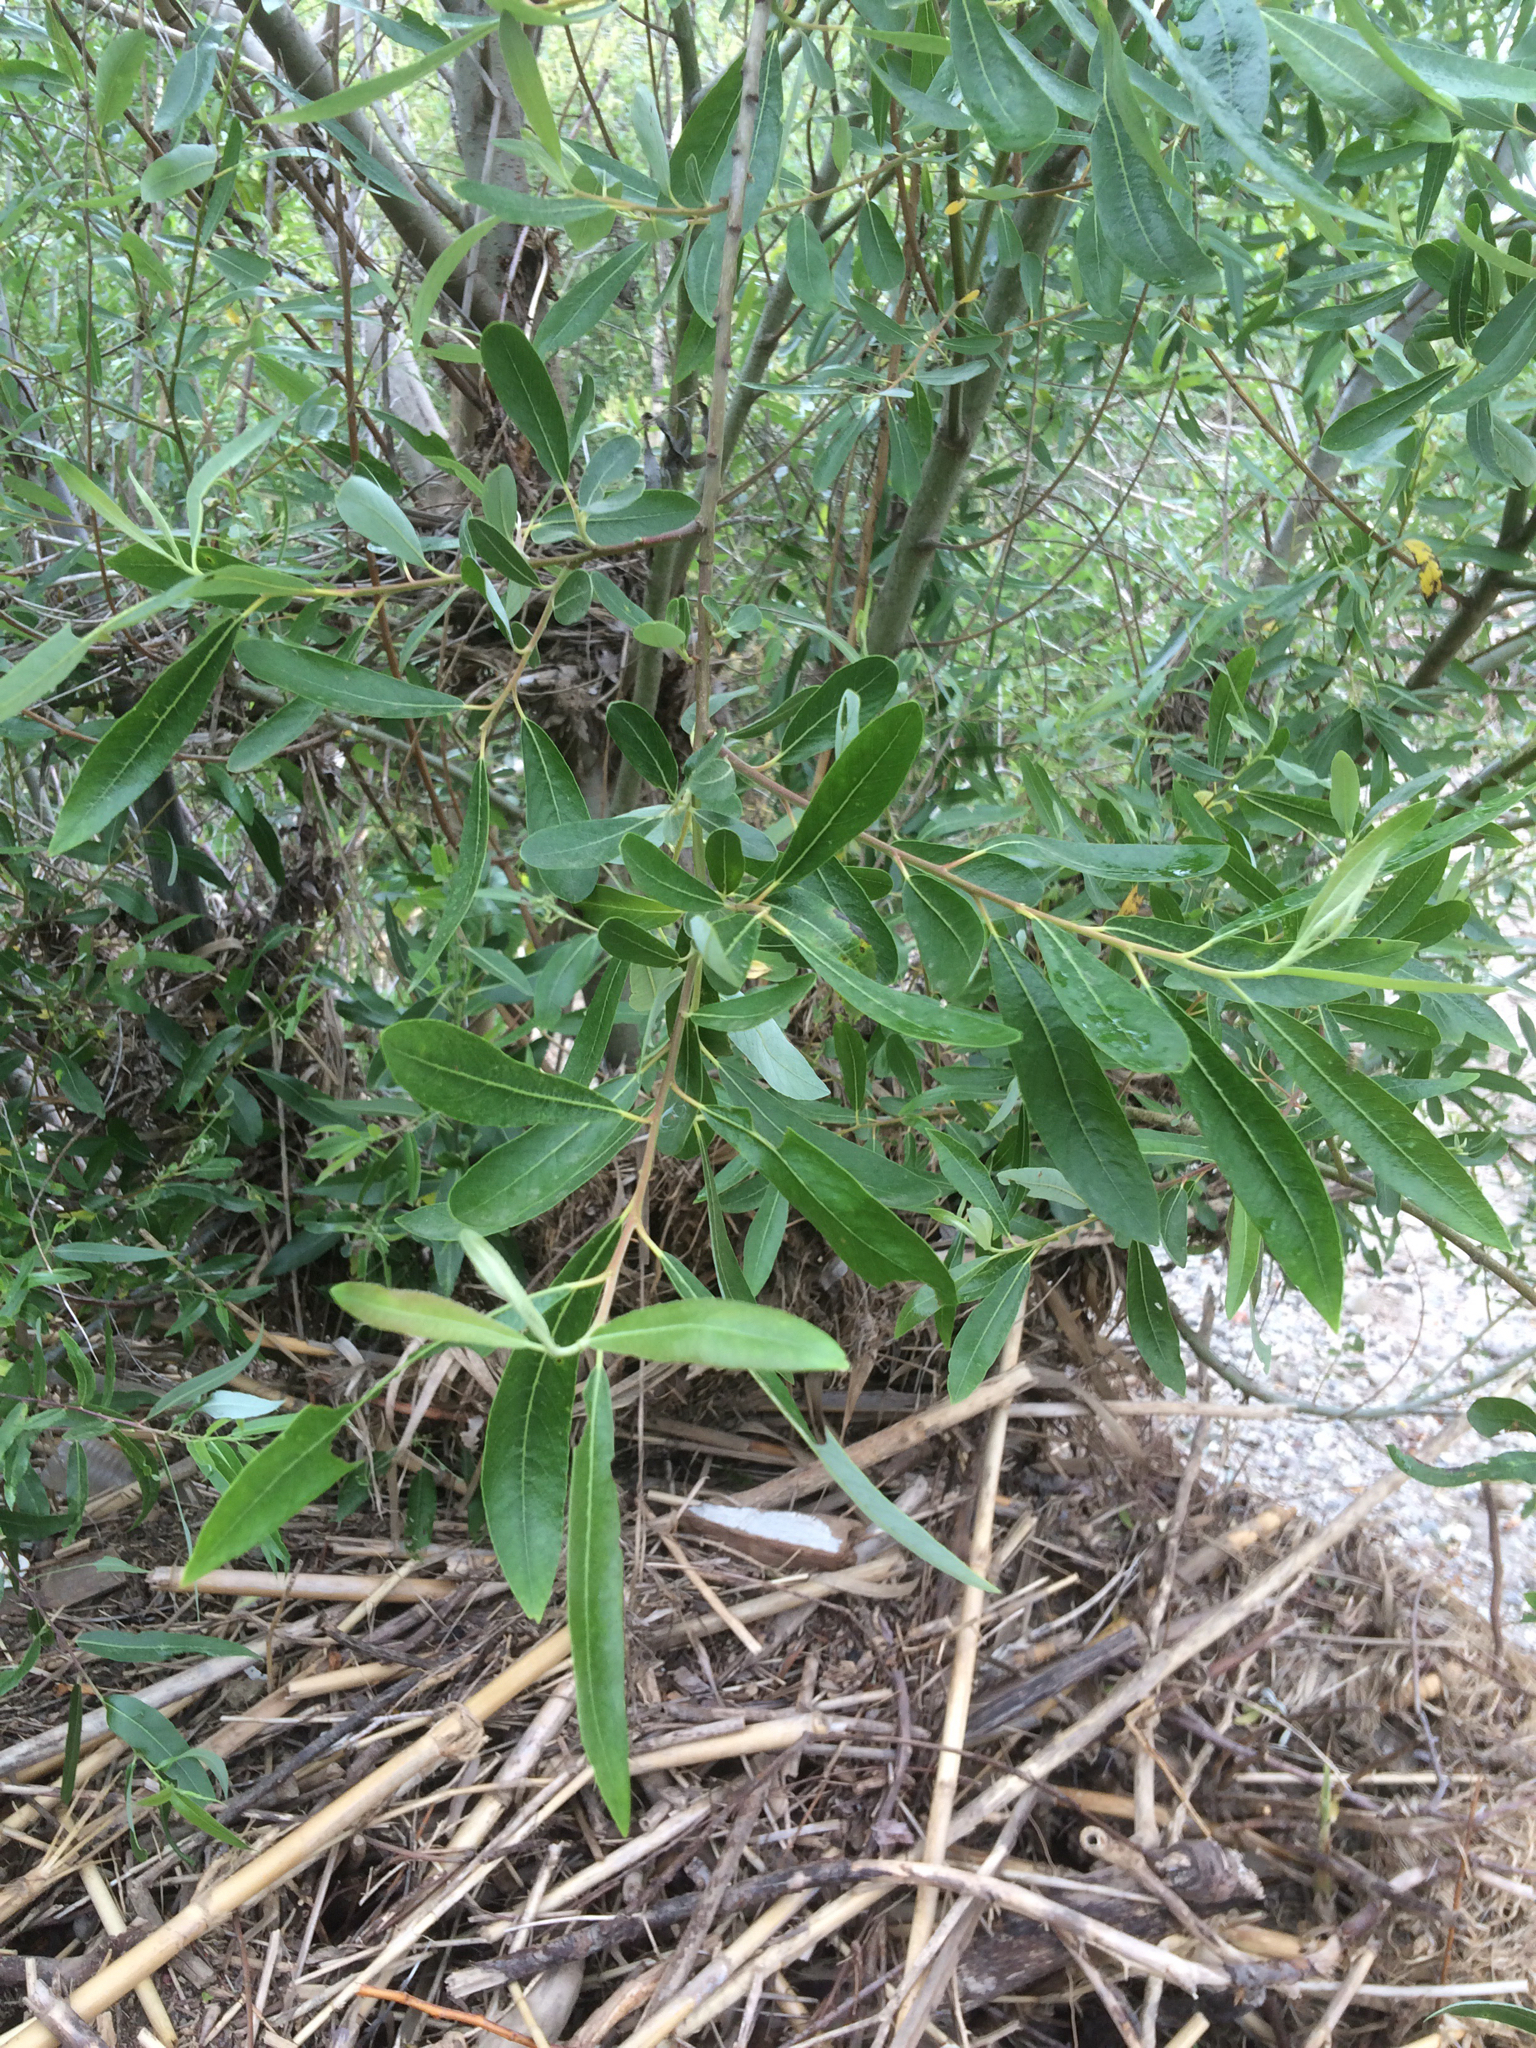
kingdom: Plantae
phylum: Tracheophyta
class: Magnoliopsida
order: Malpighiales
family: Salicaceae
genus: Salix
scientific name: Salix lasiolepis
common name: Arroyo willow
